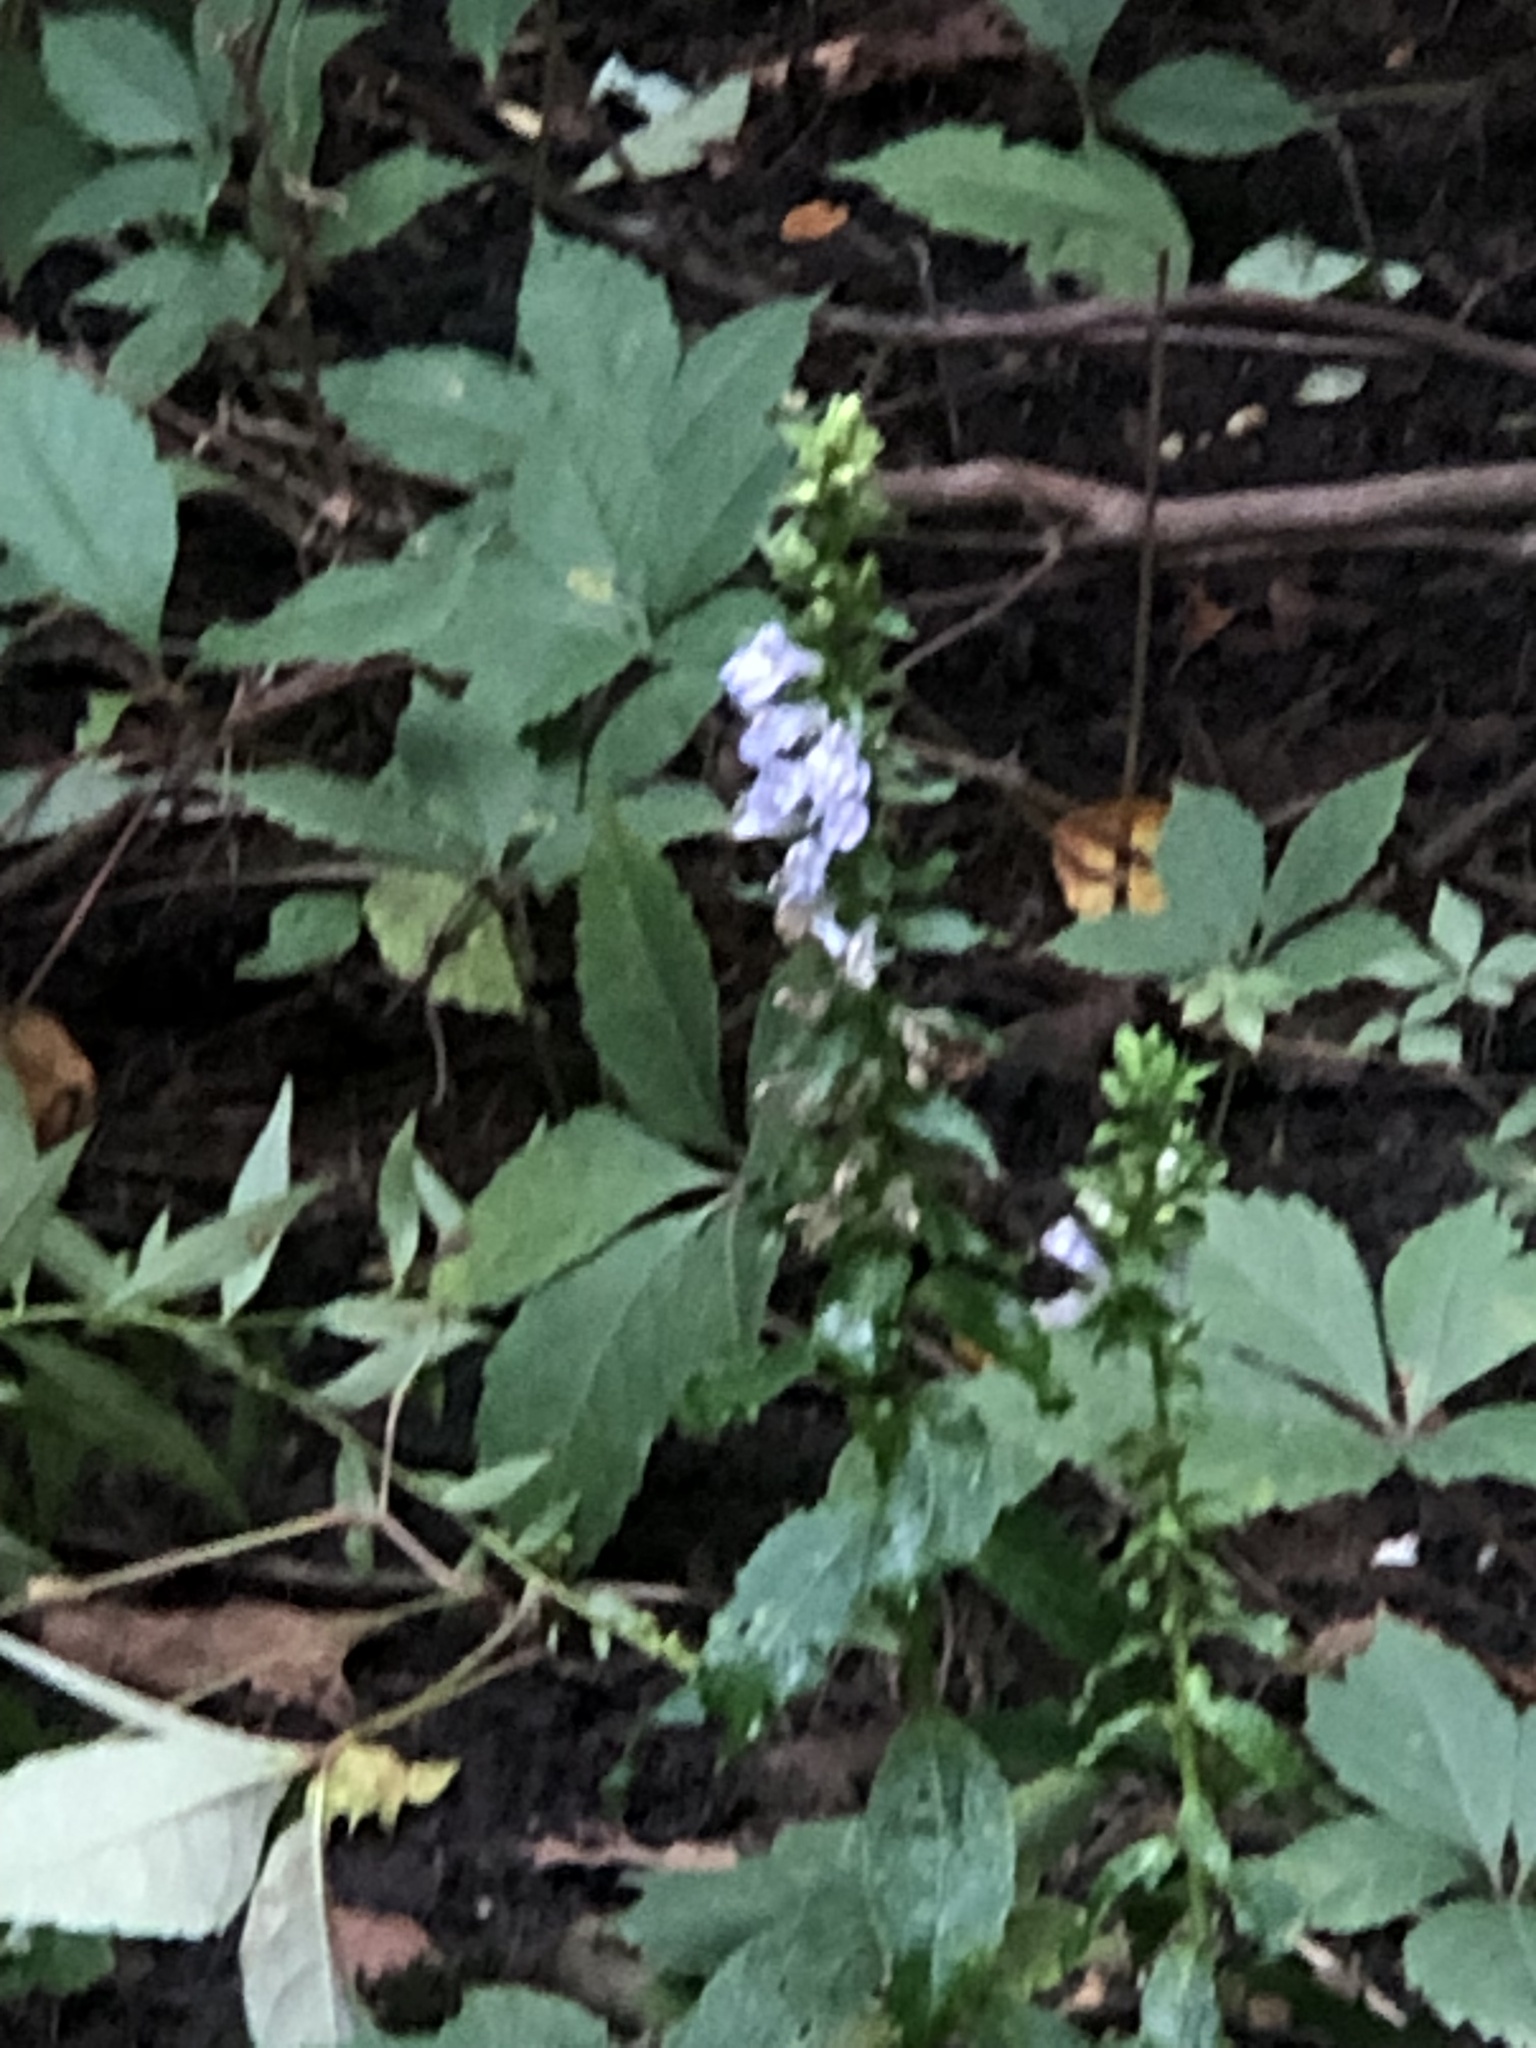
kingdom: Plantae
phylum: Tracheophyta
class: Magnoliopsida
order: Asterales
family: Campanulaceae
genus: Lobelia
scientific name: Lobelia siphilitica
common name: Great lobelia
